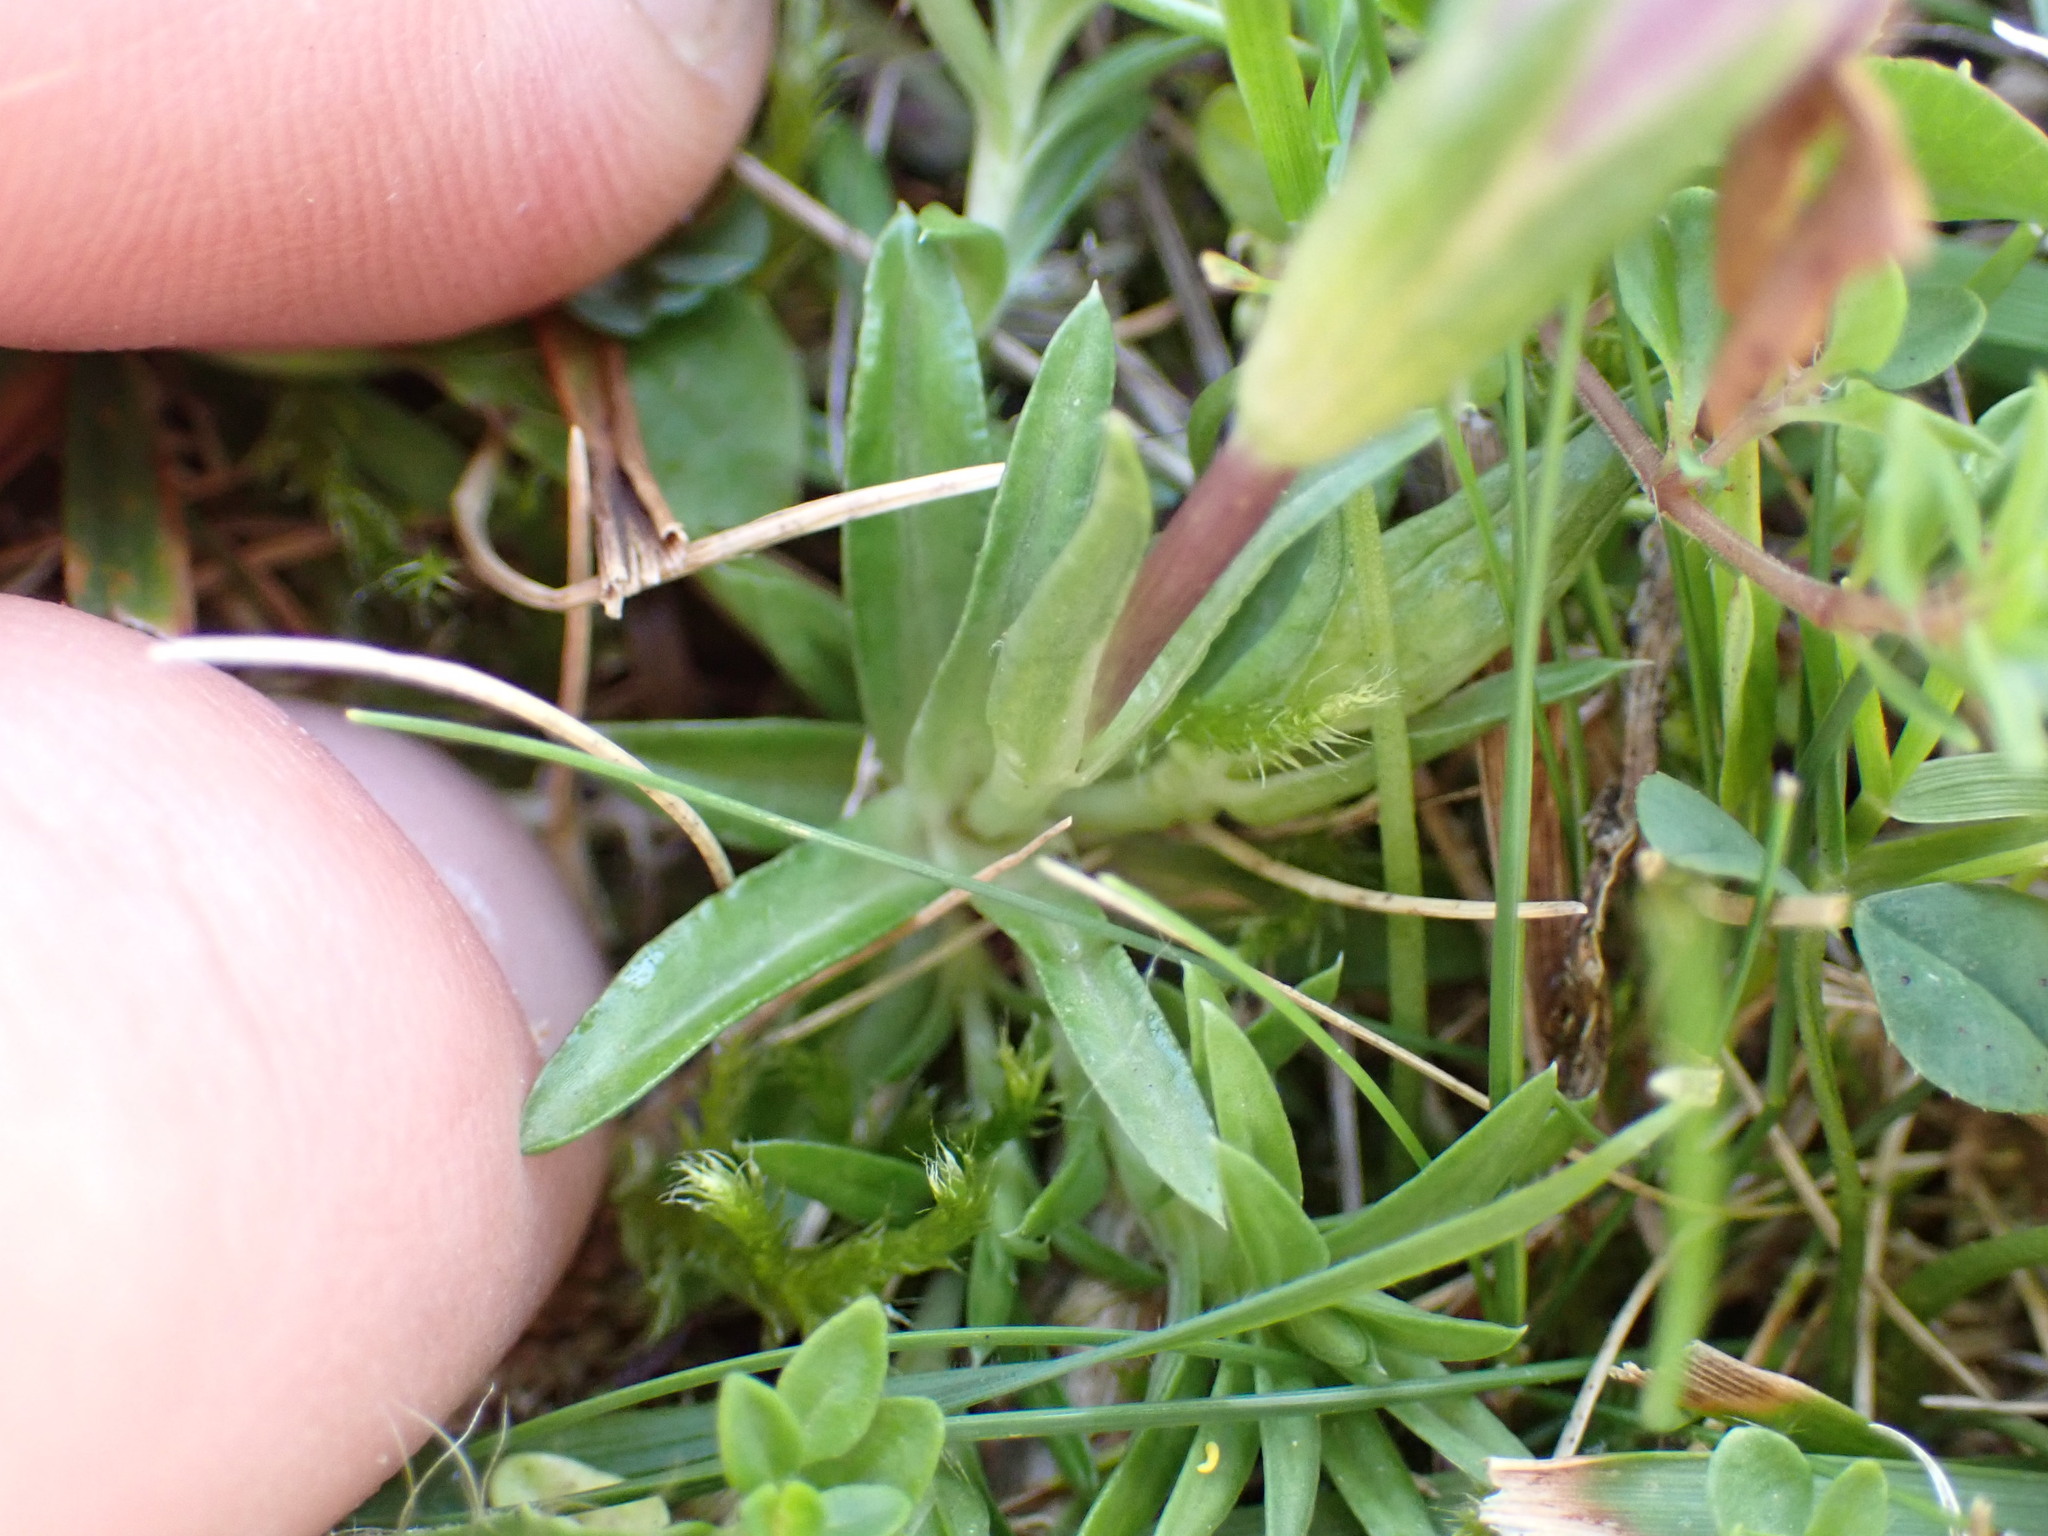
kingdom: Plantae
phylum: Tracheophyta
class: Magnoliopsida
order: Gentianales
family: Gentianaceae
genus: Gentiana
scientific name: Gentiana pyrenaica
